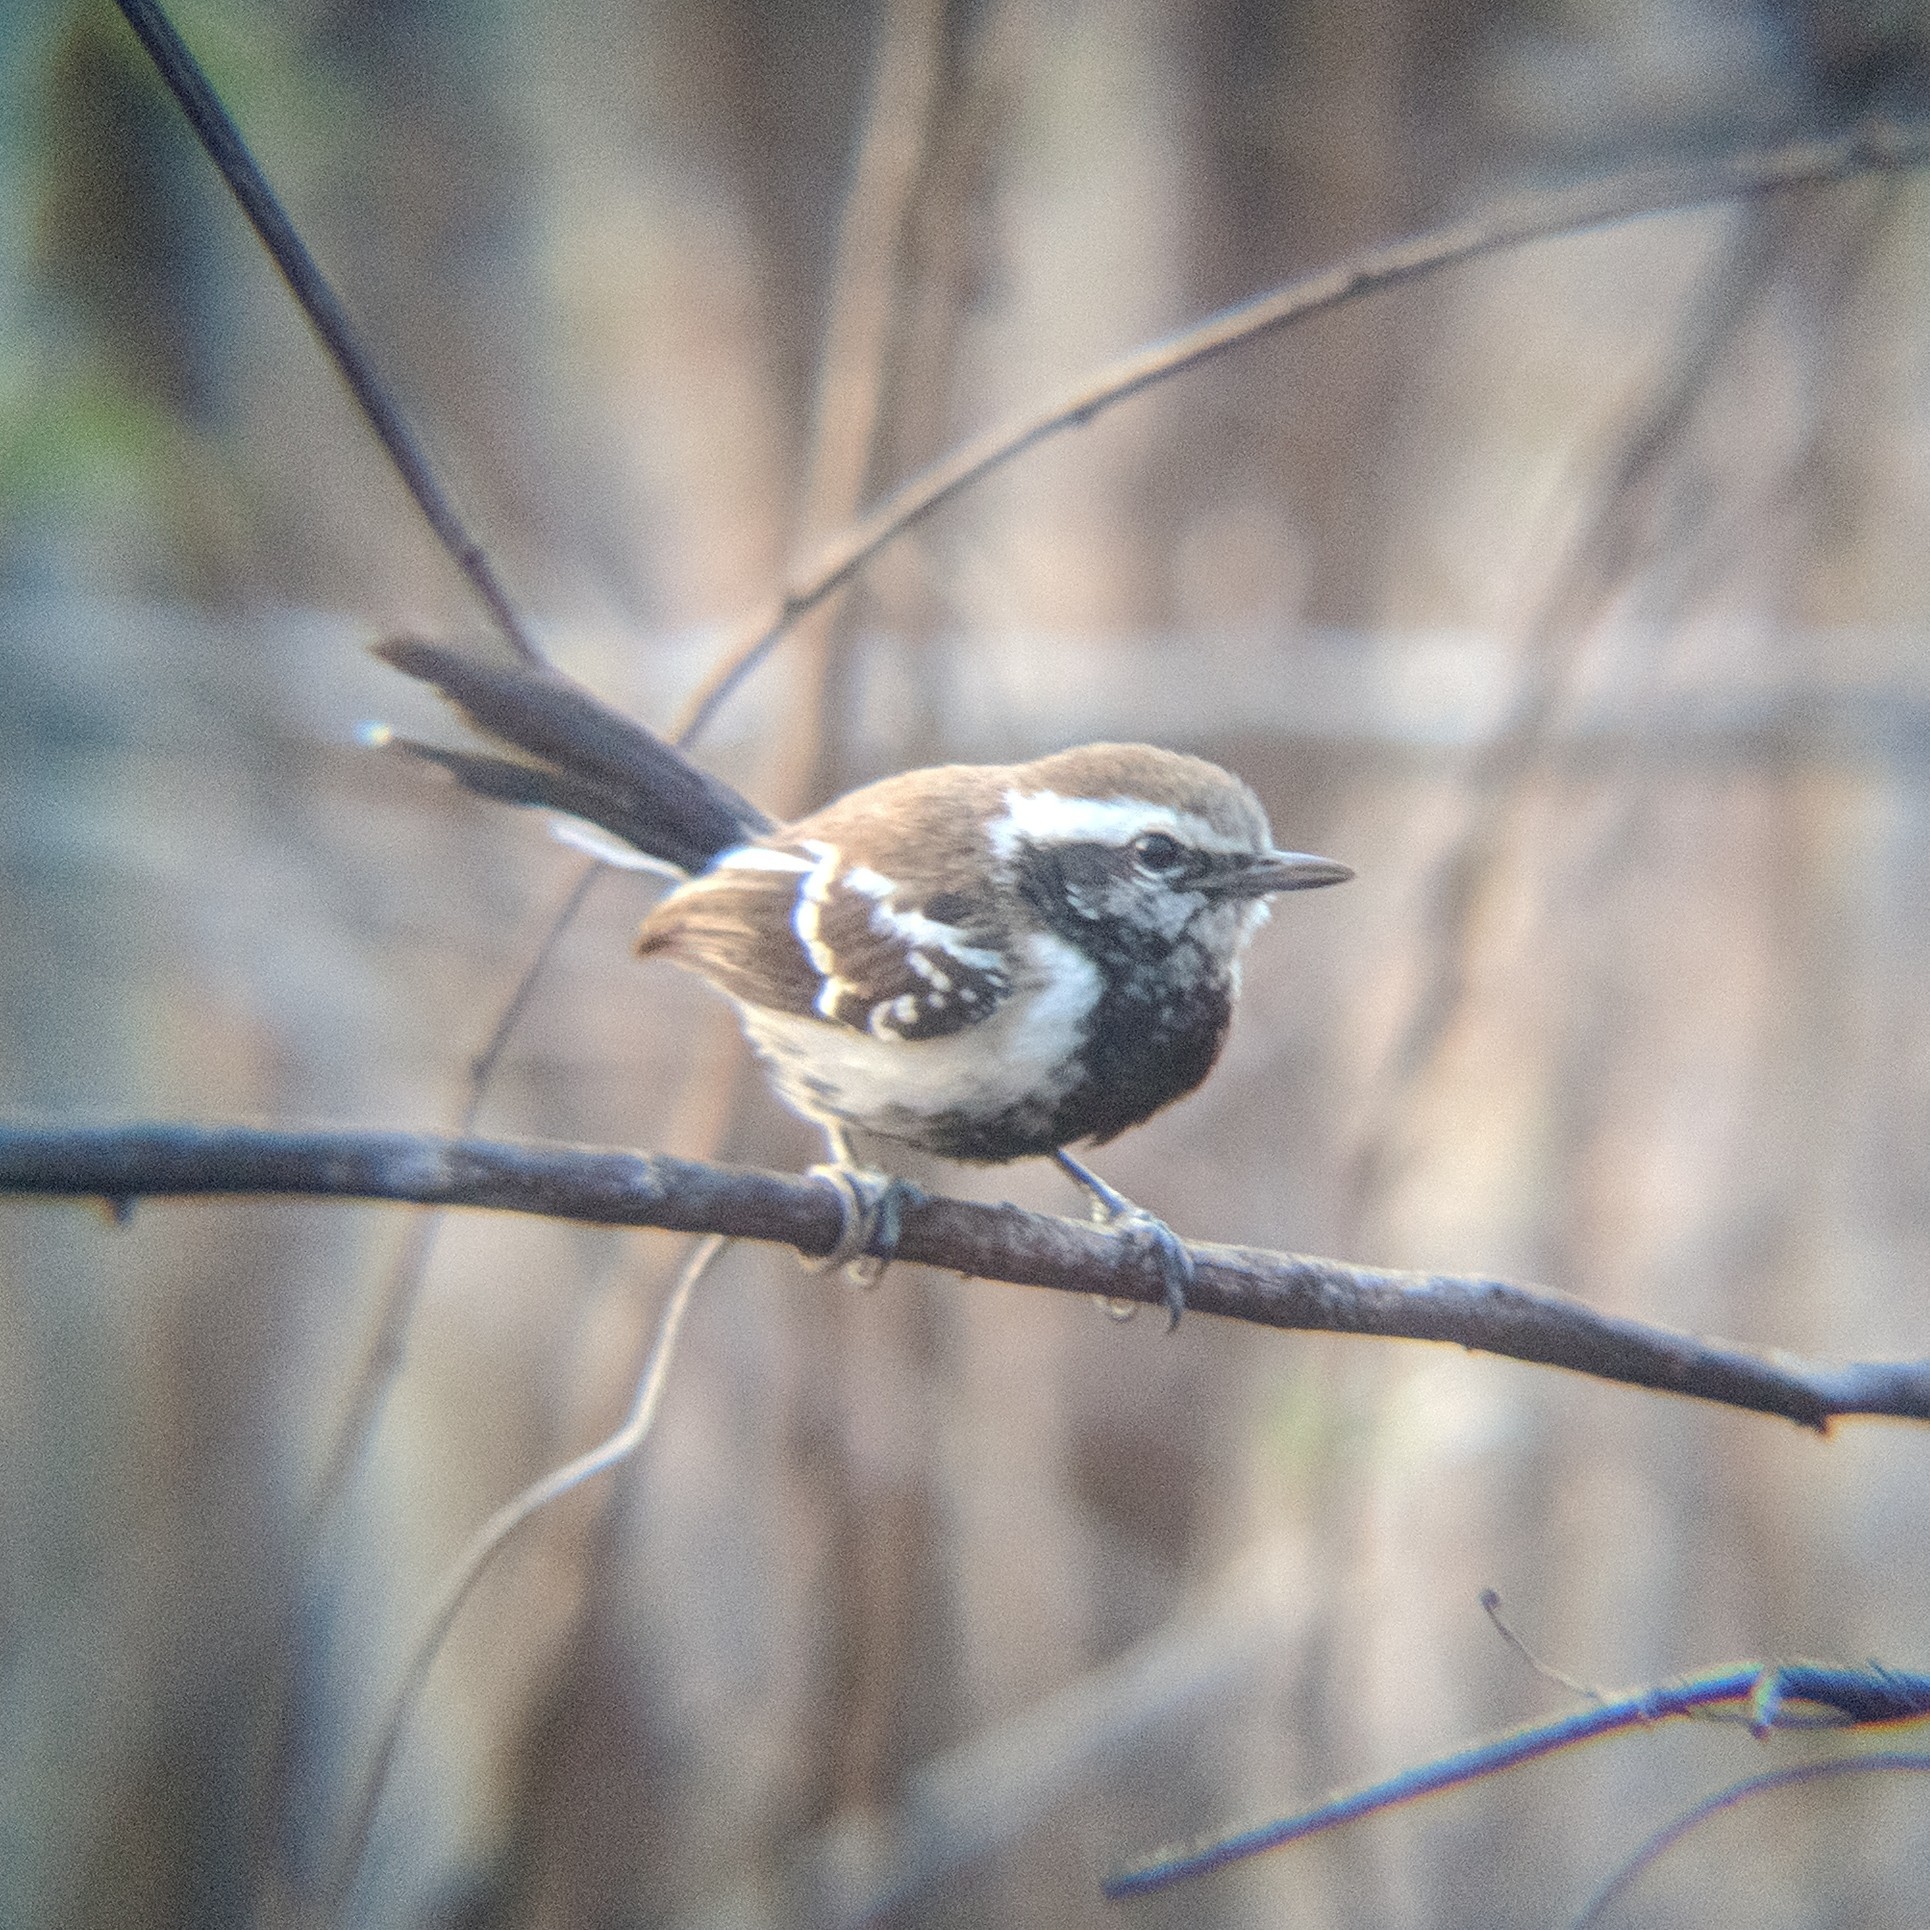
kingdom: Animalia
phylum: Chordata
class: Aves
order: Passeriformes
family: Thamnophilidae
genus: Formicivora
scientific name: Formicivora grisea
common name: Southern white-fringed antwren
